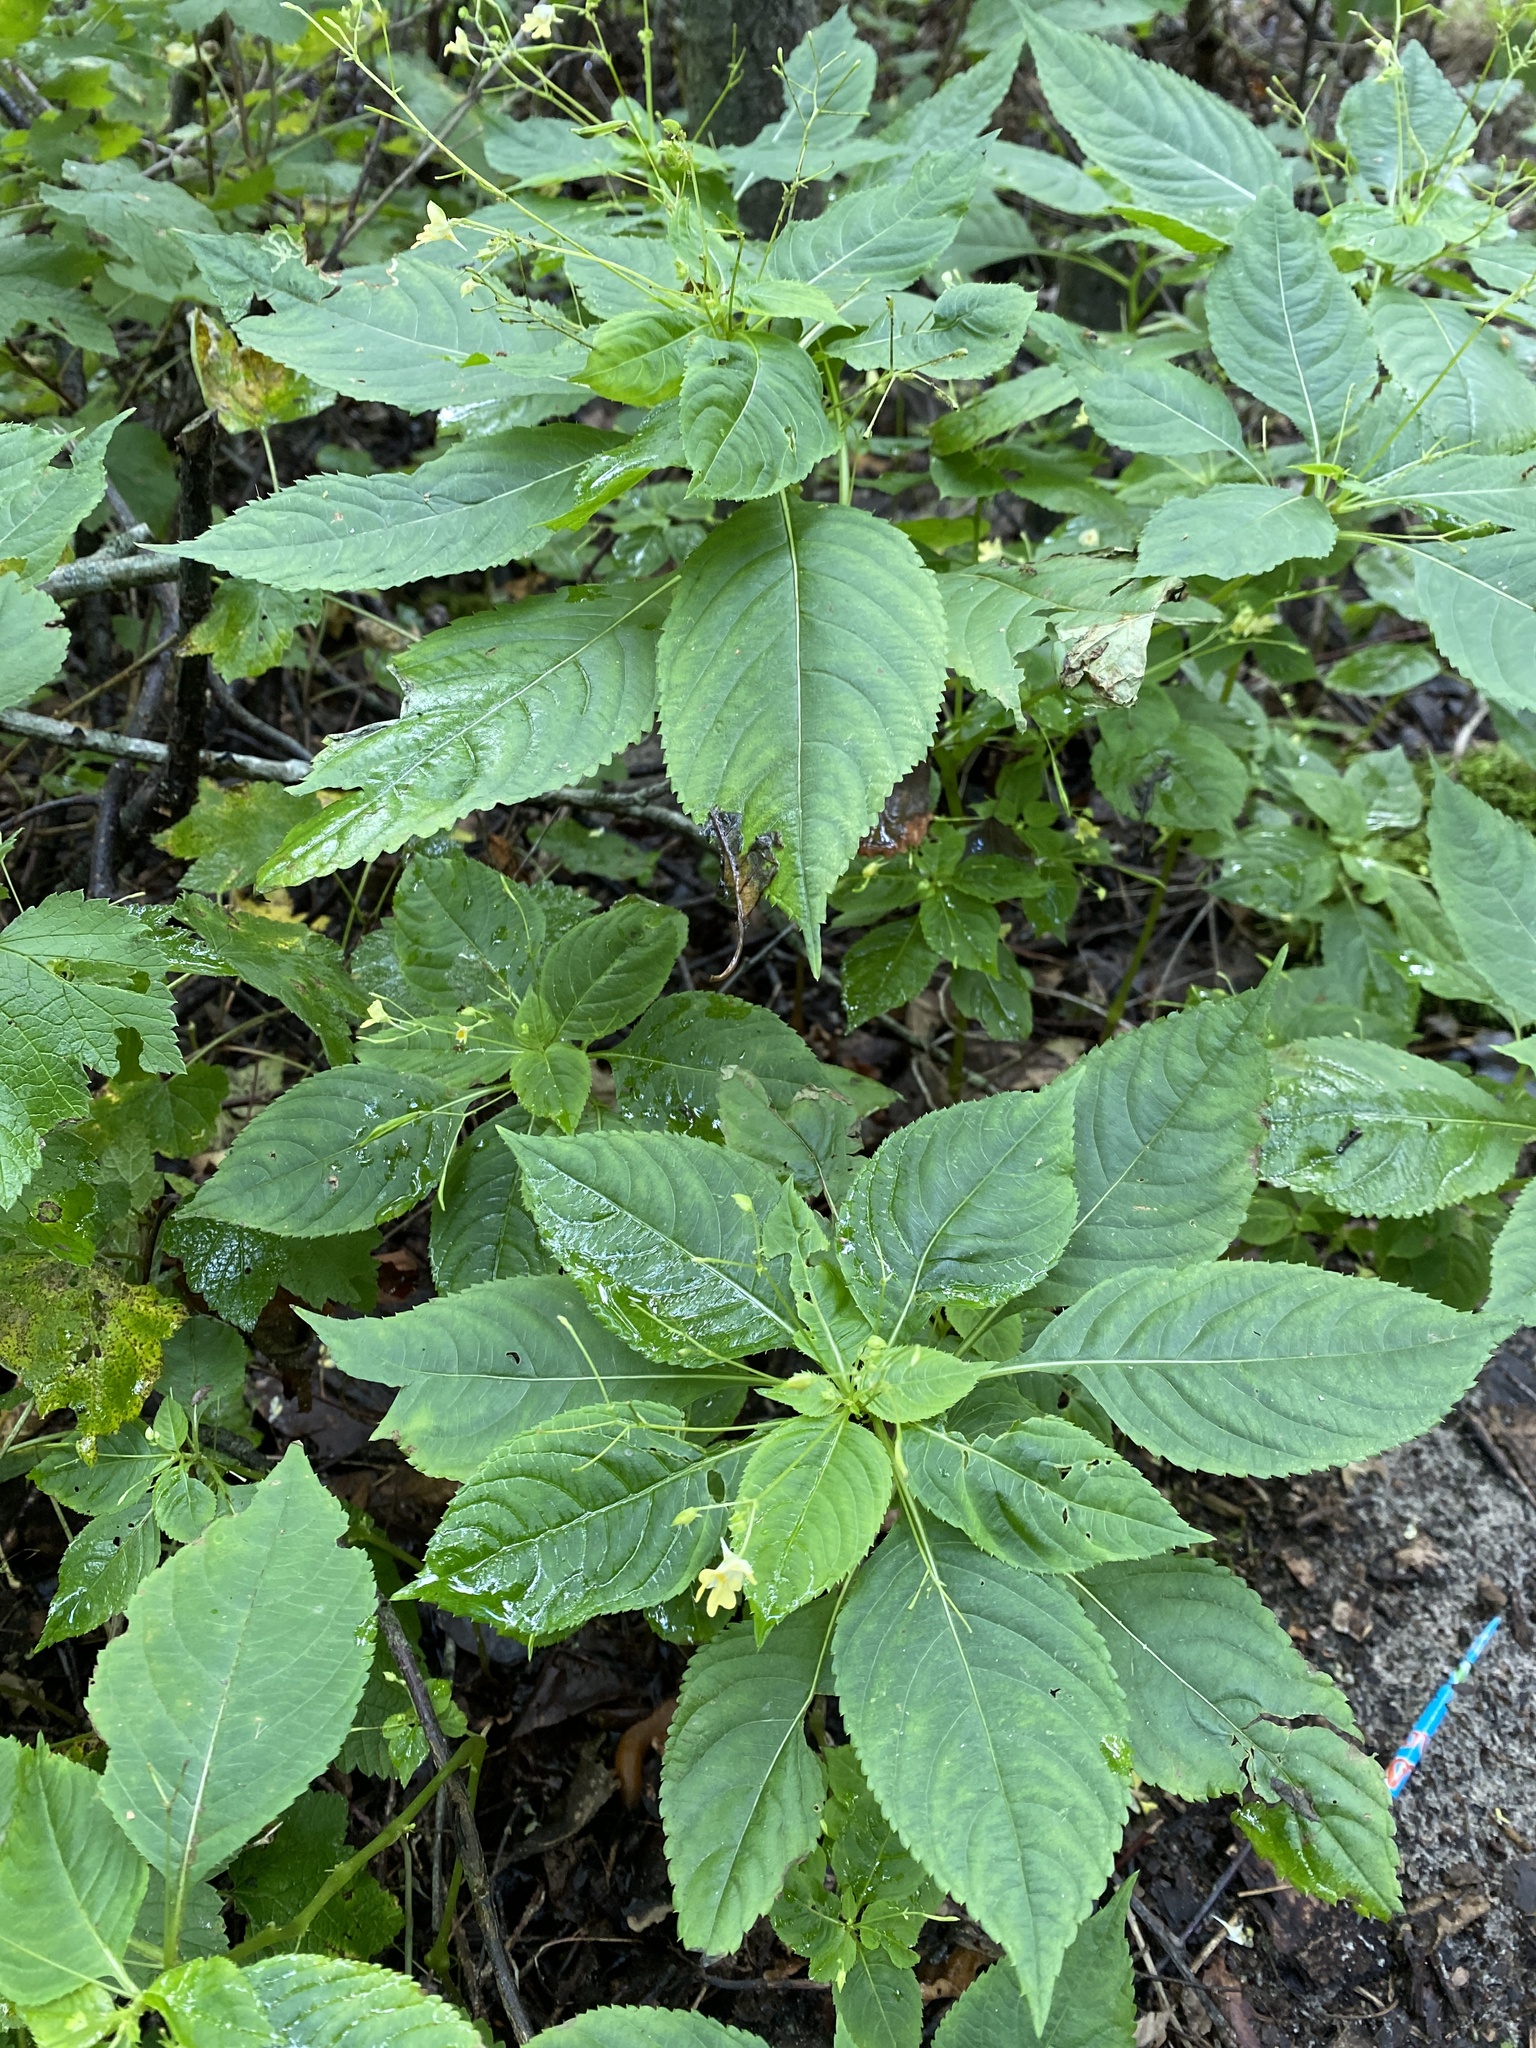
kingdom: Plantae
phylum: Tracheophyta
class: Magnoliopsida
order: Ericales
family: Balsaminaceae
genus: Impatiens
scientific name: Impatiens parviflora
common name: Small balsam
